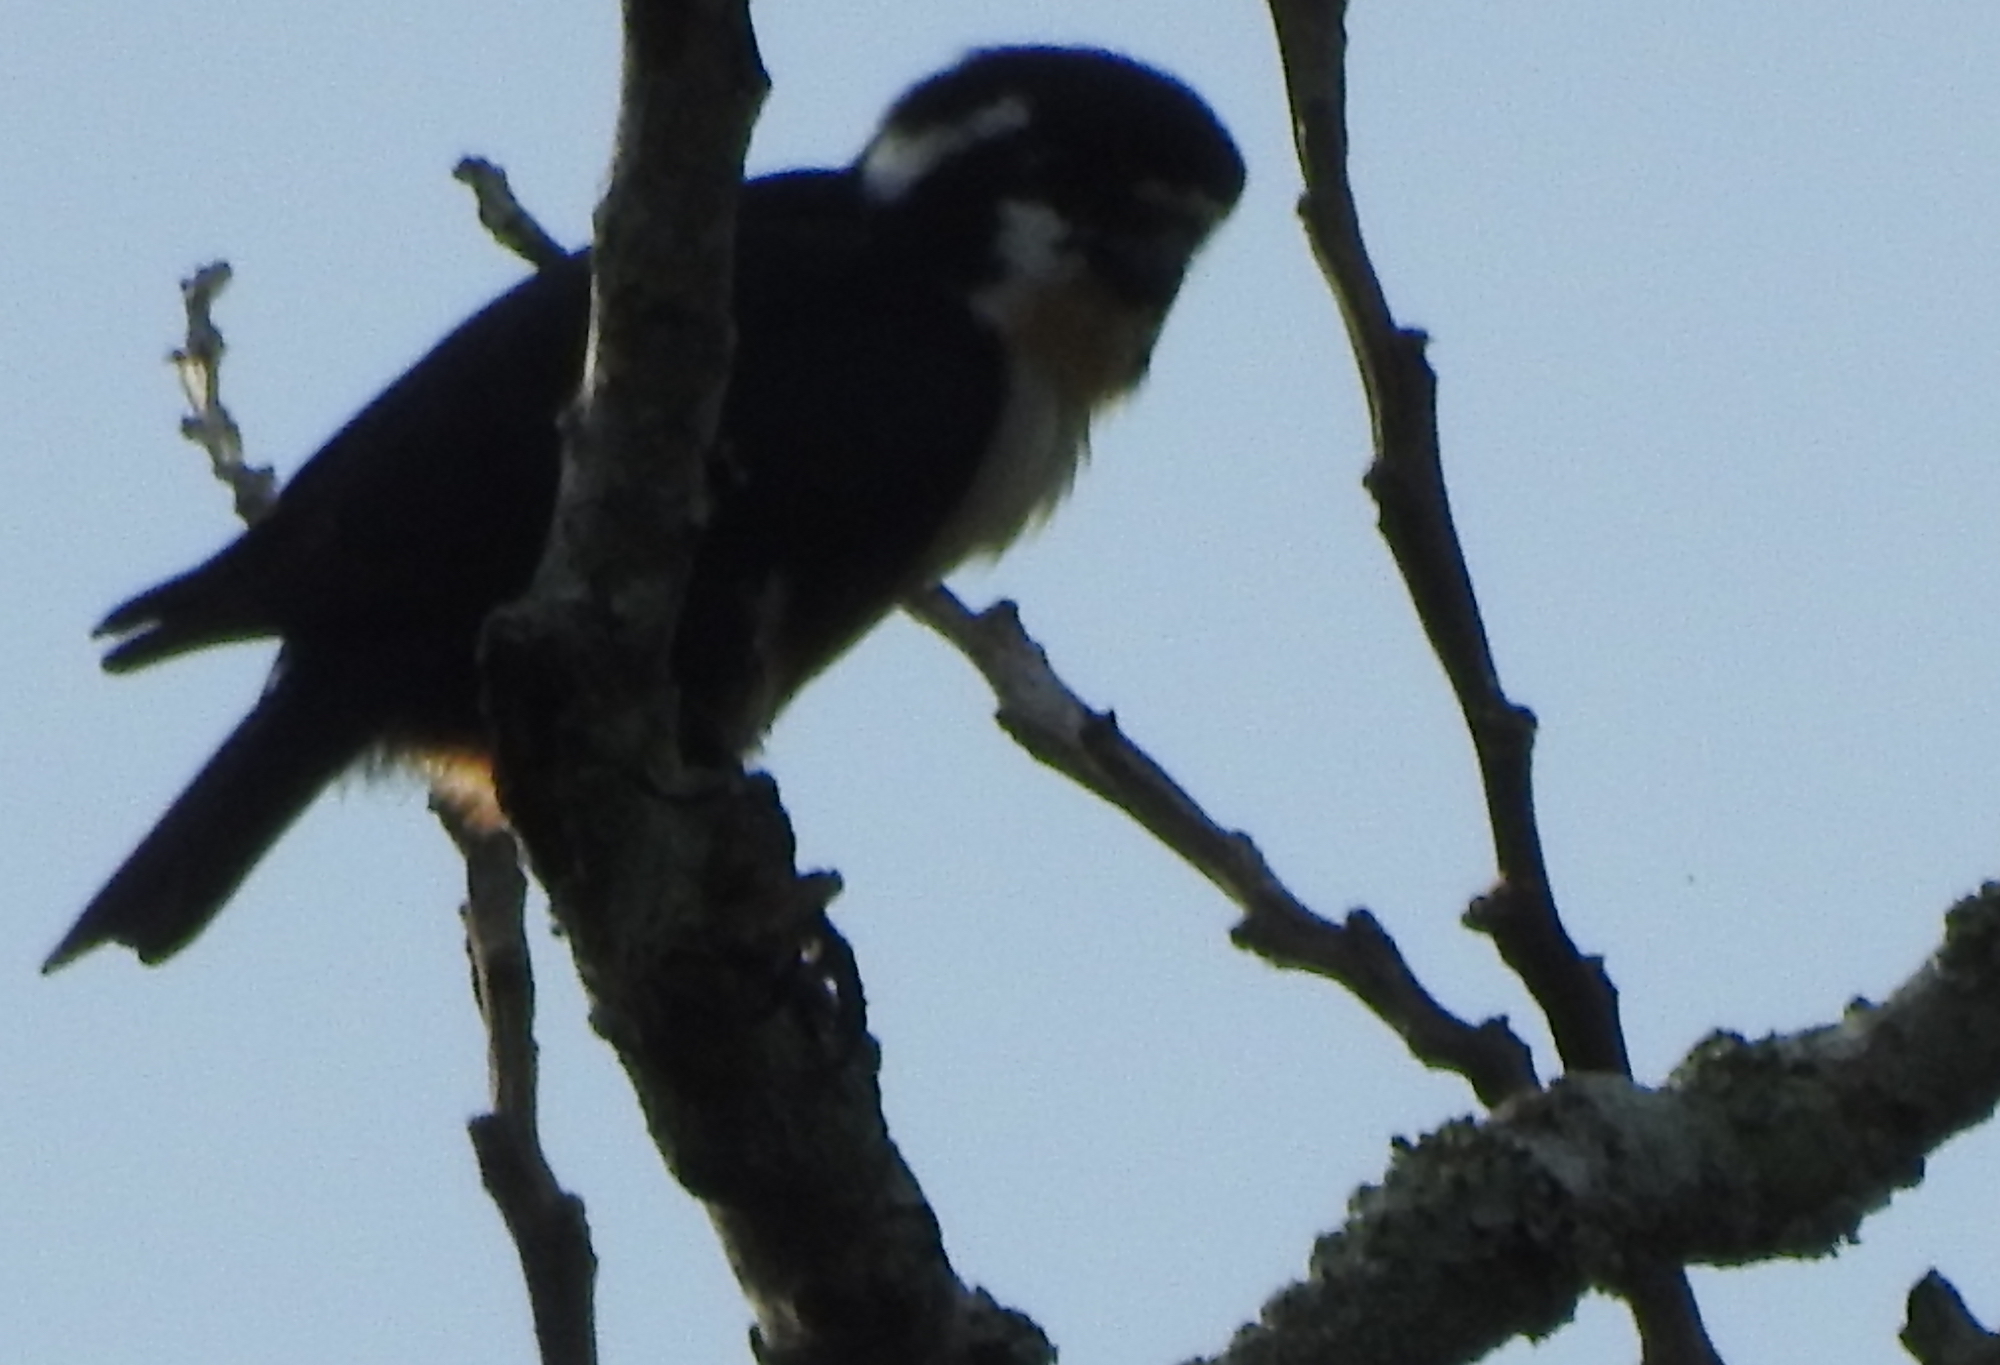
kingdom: Animalia
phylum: Chordata
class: Aves
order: Falconiformes
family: Falconidae
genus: Microhierax
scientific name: Microhierax fringillarius
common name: Black-thighed falconet
